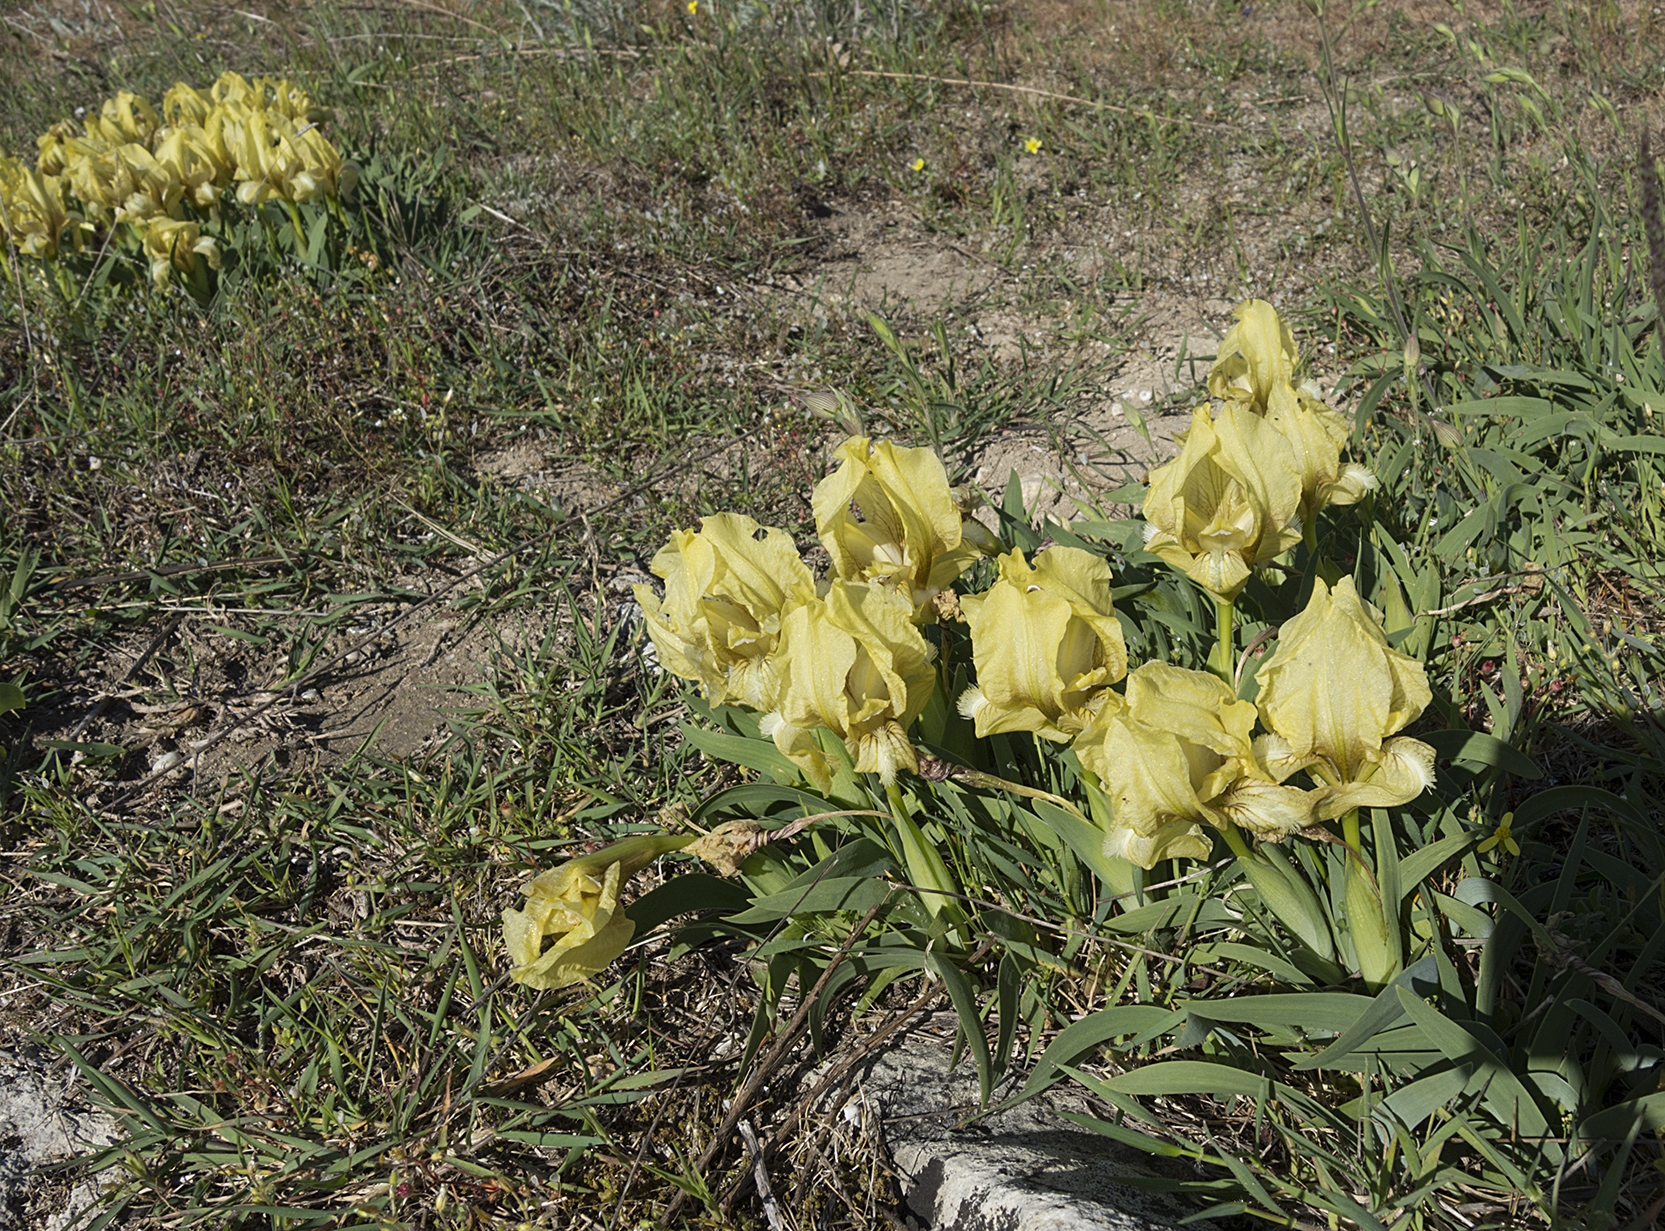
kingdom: Plantae
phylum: Tracheophyta
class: Liliopsida
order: Asparagales
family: Iridaceae
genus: Iris
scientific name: Iris suaveolens
